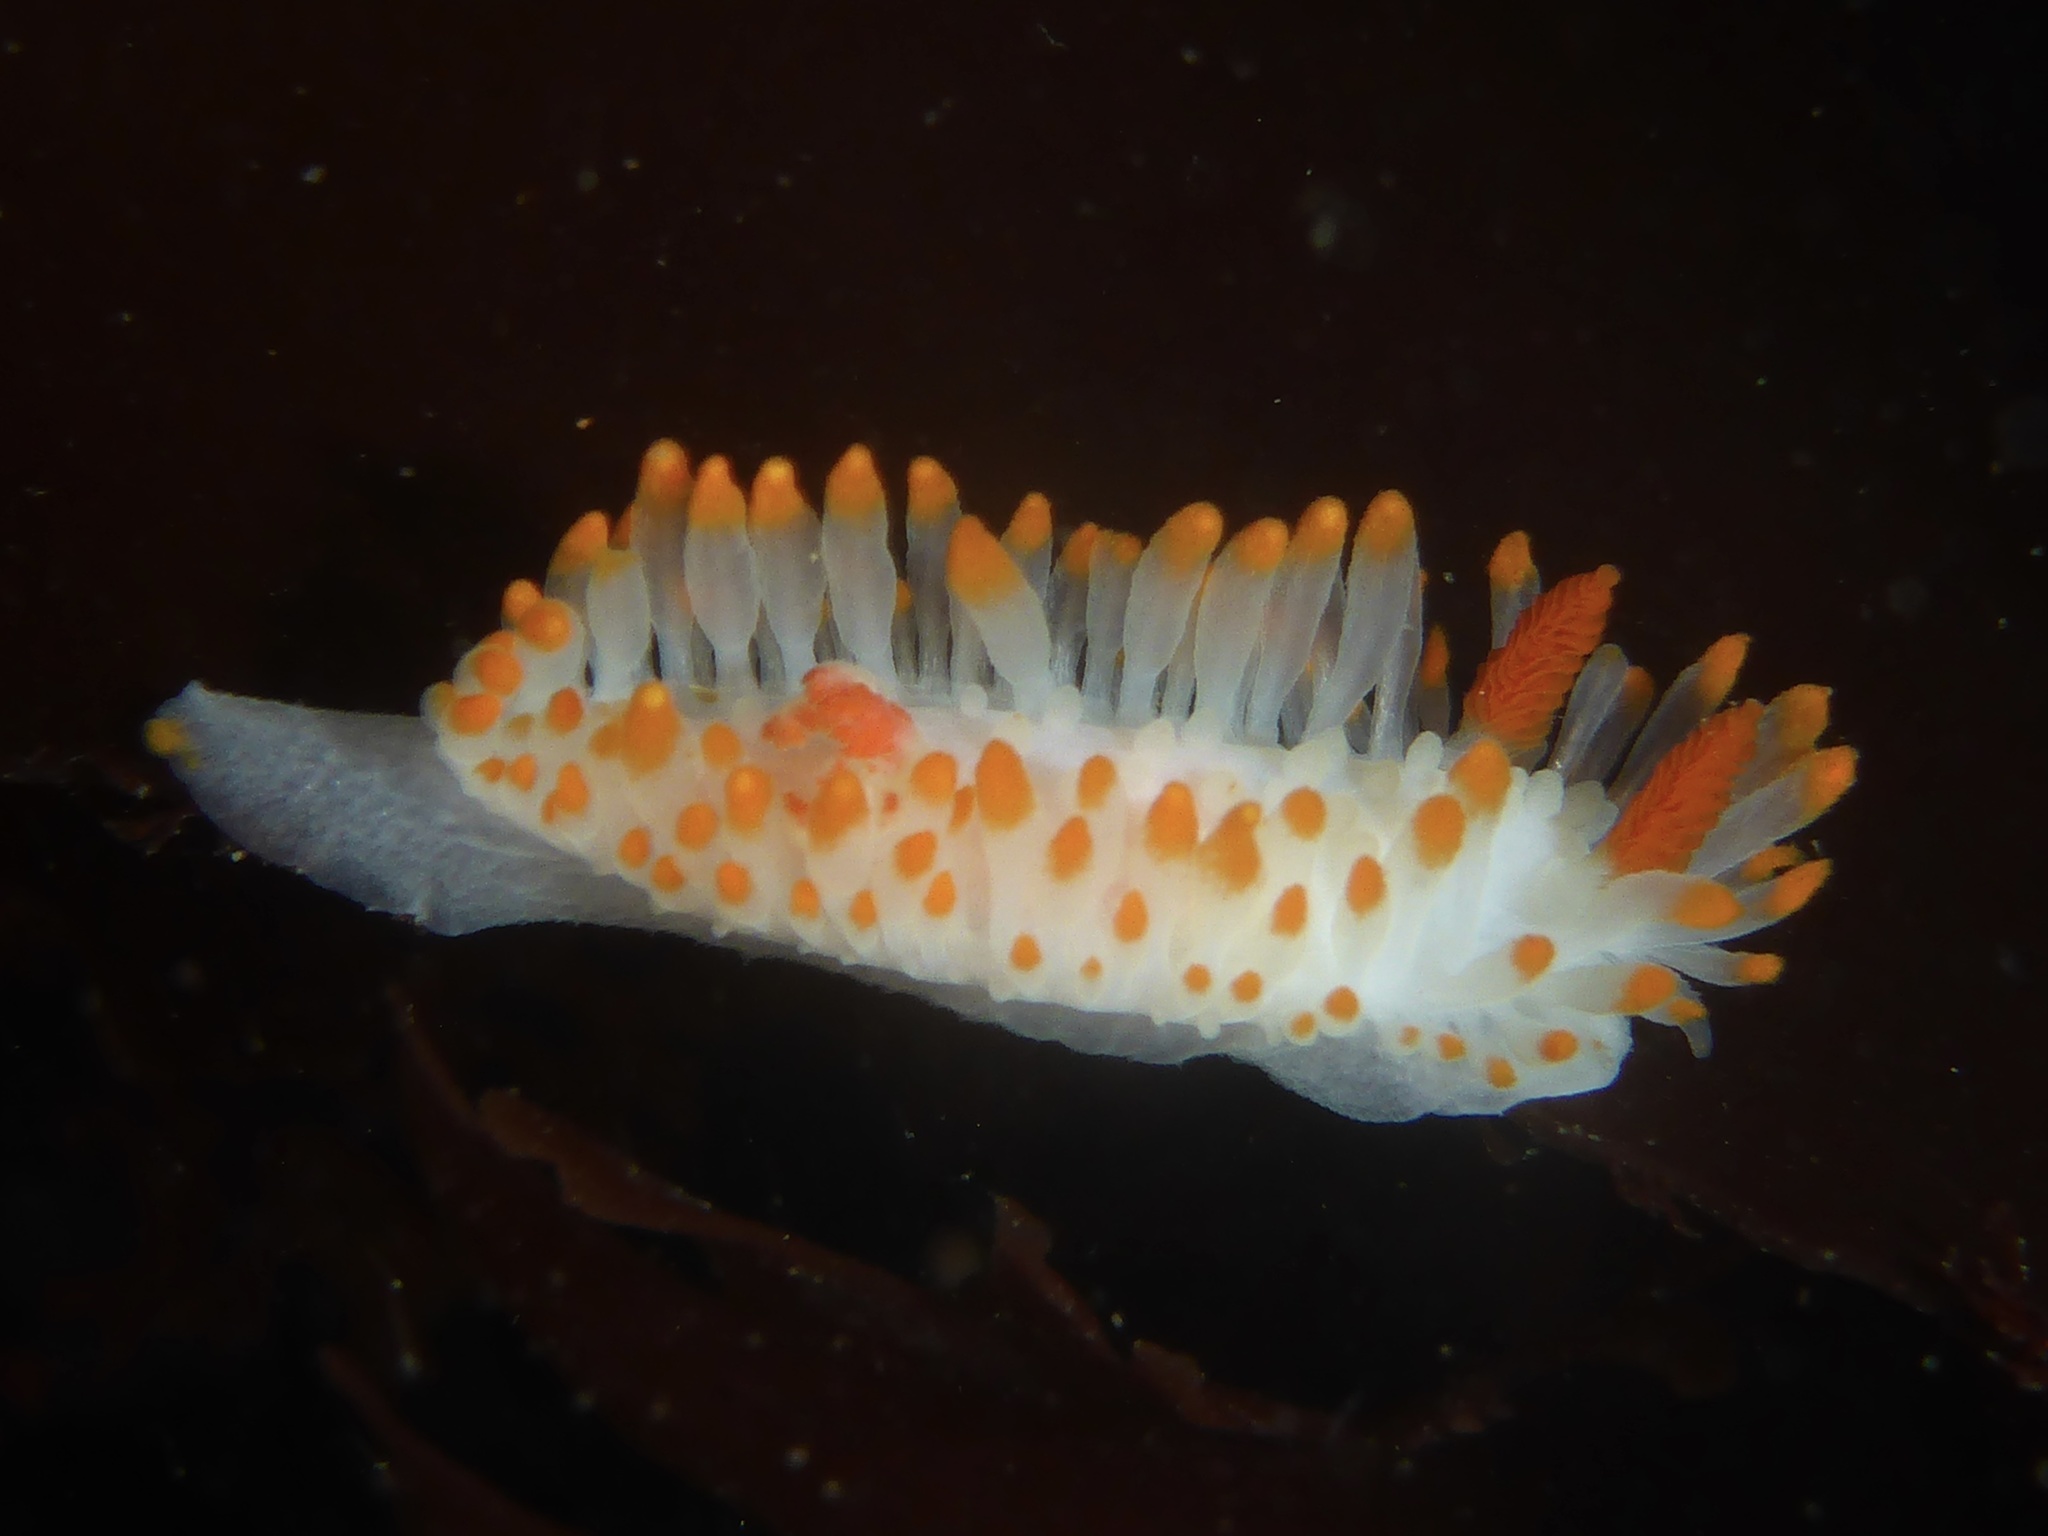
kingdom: Animalia
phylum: Mollusca
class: Gastropoda
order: Nudibranchia
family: Polyceridae
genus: Limacia
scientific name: Limacia cockerelli
